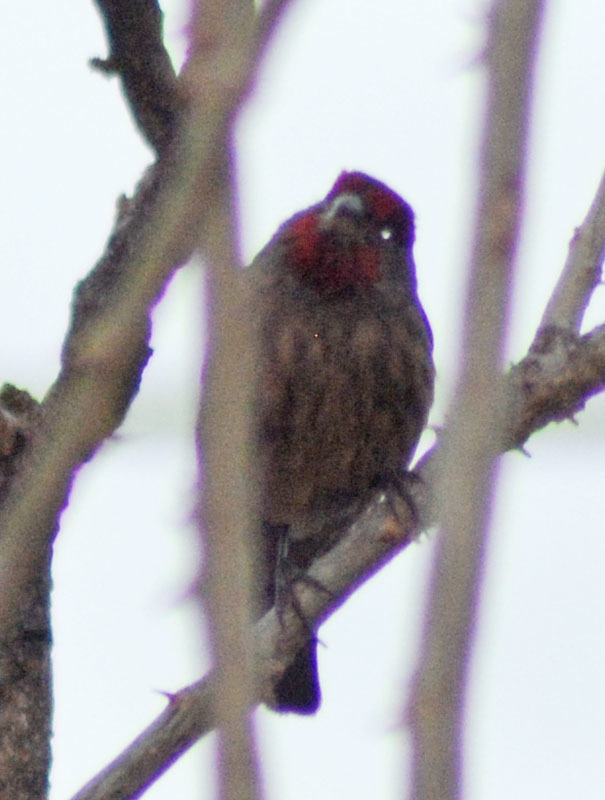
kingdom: Animalia
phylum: Chordata
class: Aves
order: Passeriformes
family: Fringillidae
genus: Haemorhous
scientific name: Haemorhous mexicanus
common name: House finch
